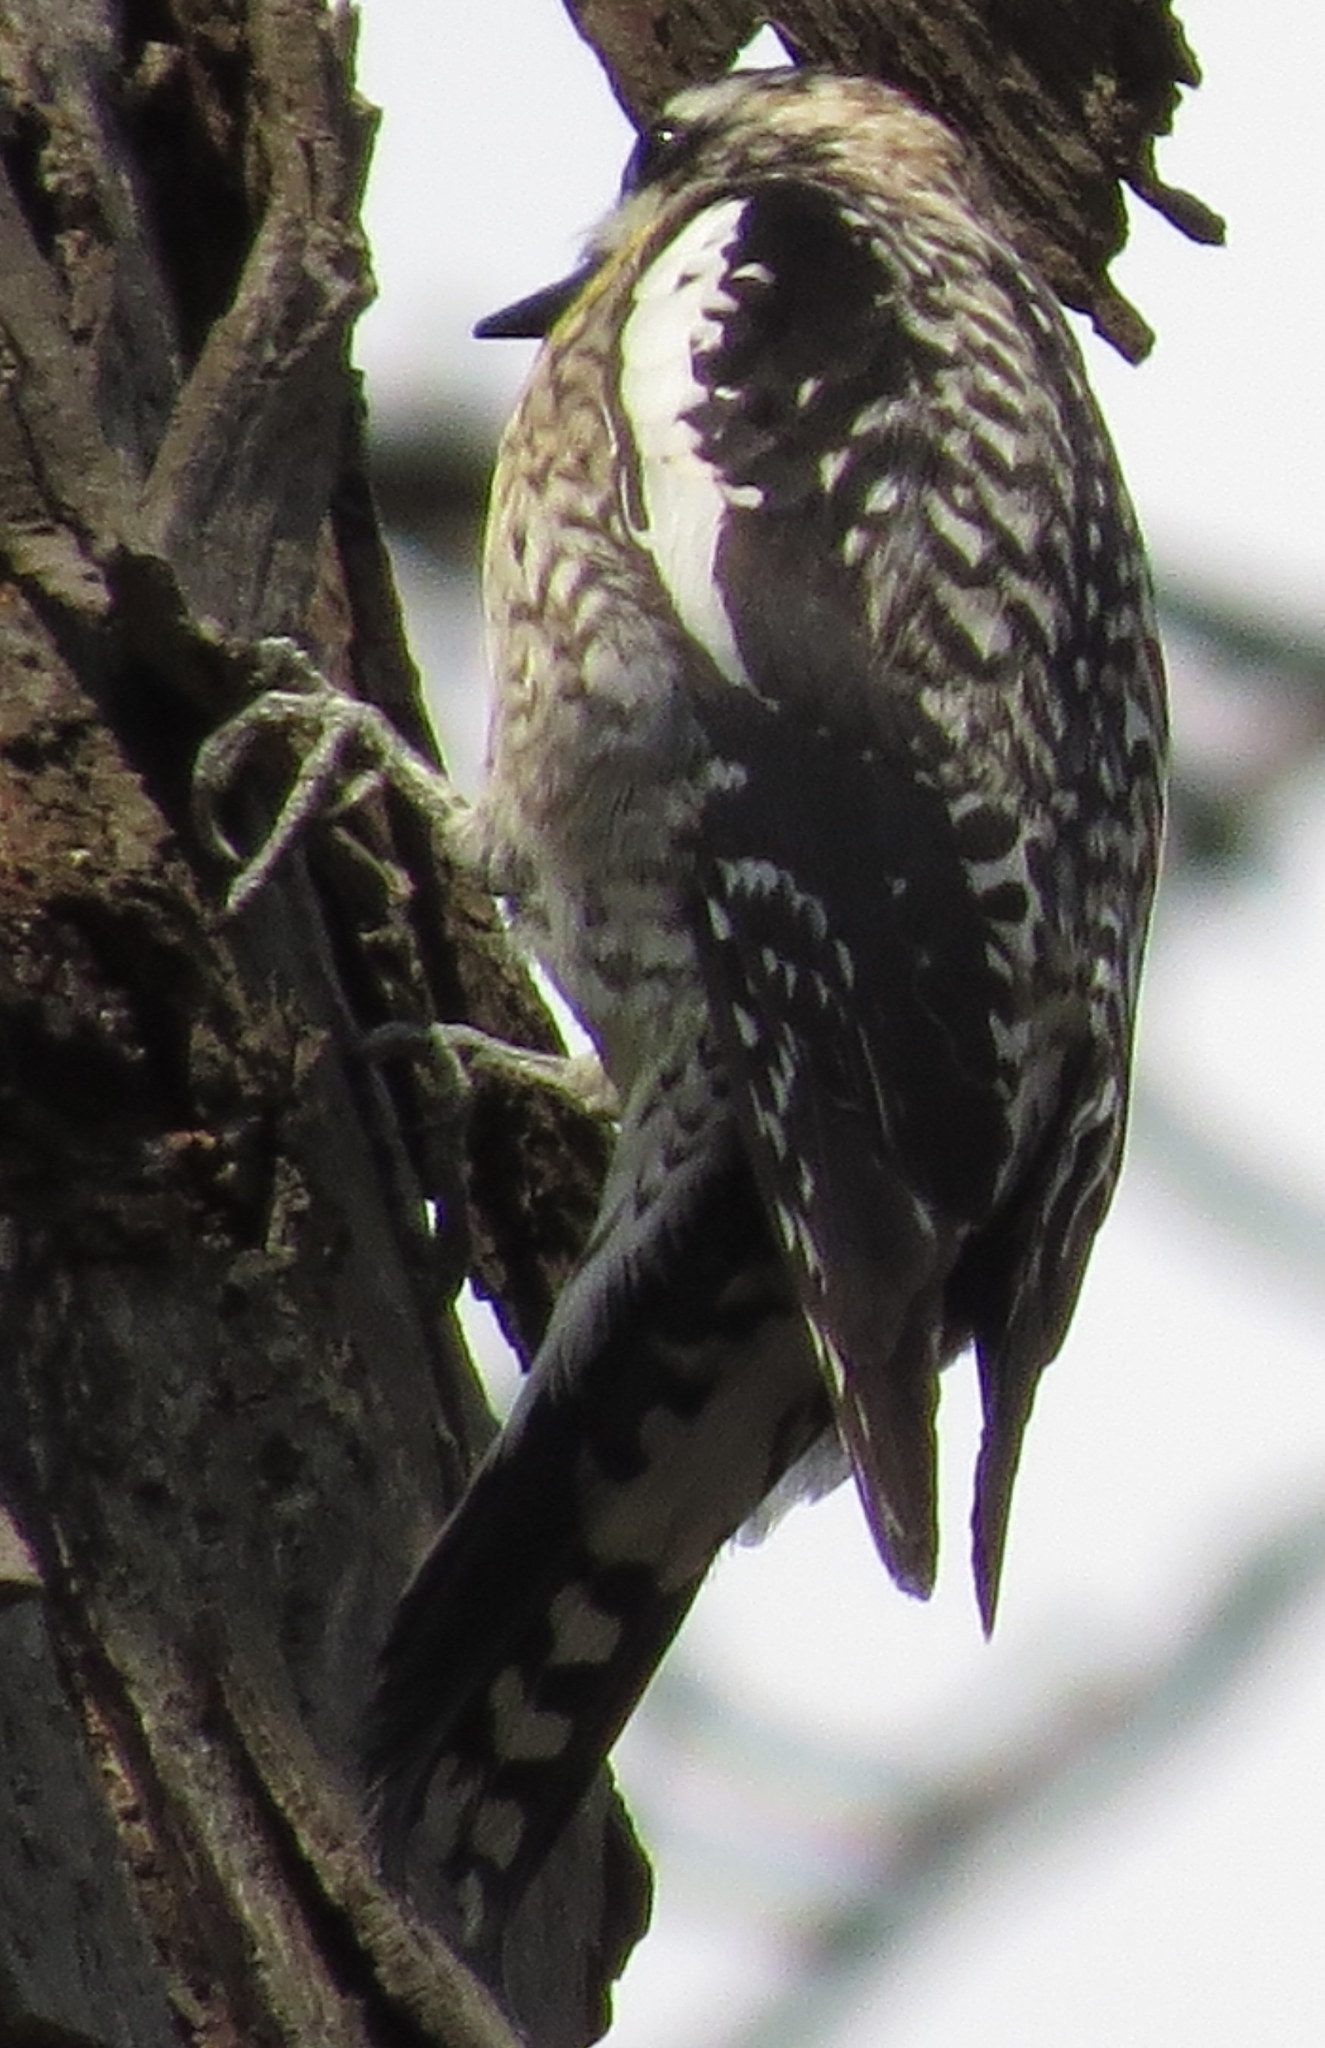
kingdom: Animalia
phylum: Chordata
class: Aves
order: Piciformes
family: Picidae
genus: Sphyrapicus
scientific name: Sphyrapicus varius
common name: Yellow-bellied sapsucker
